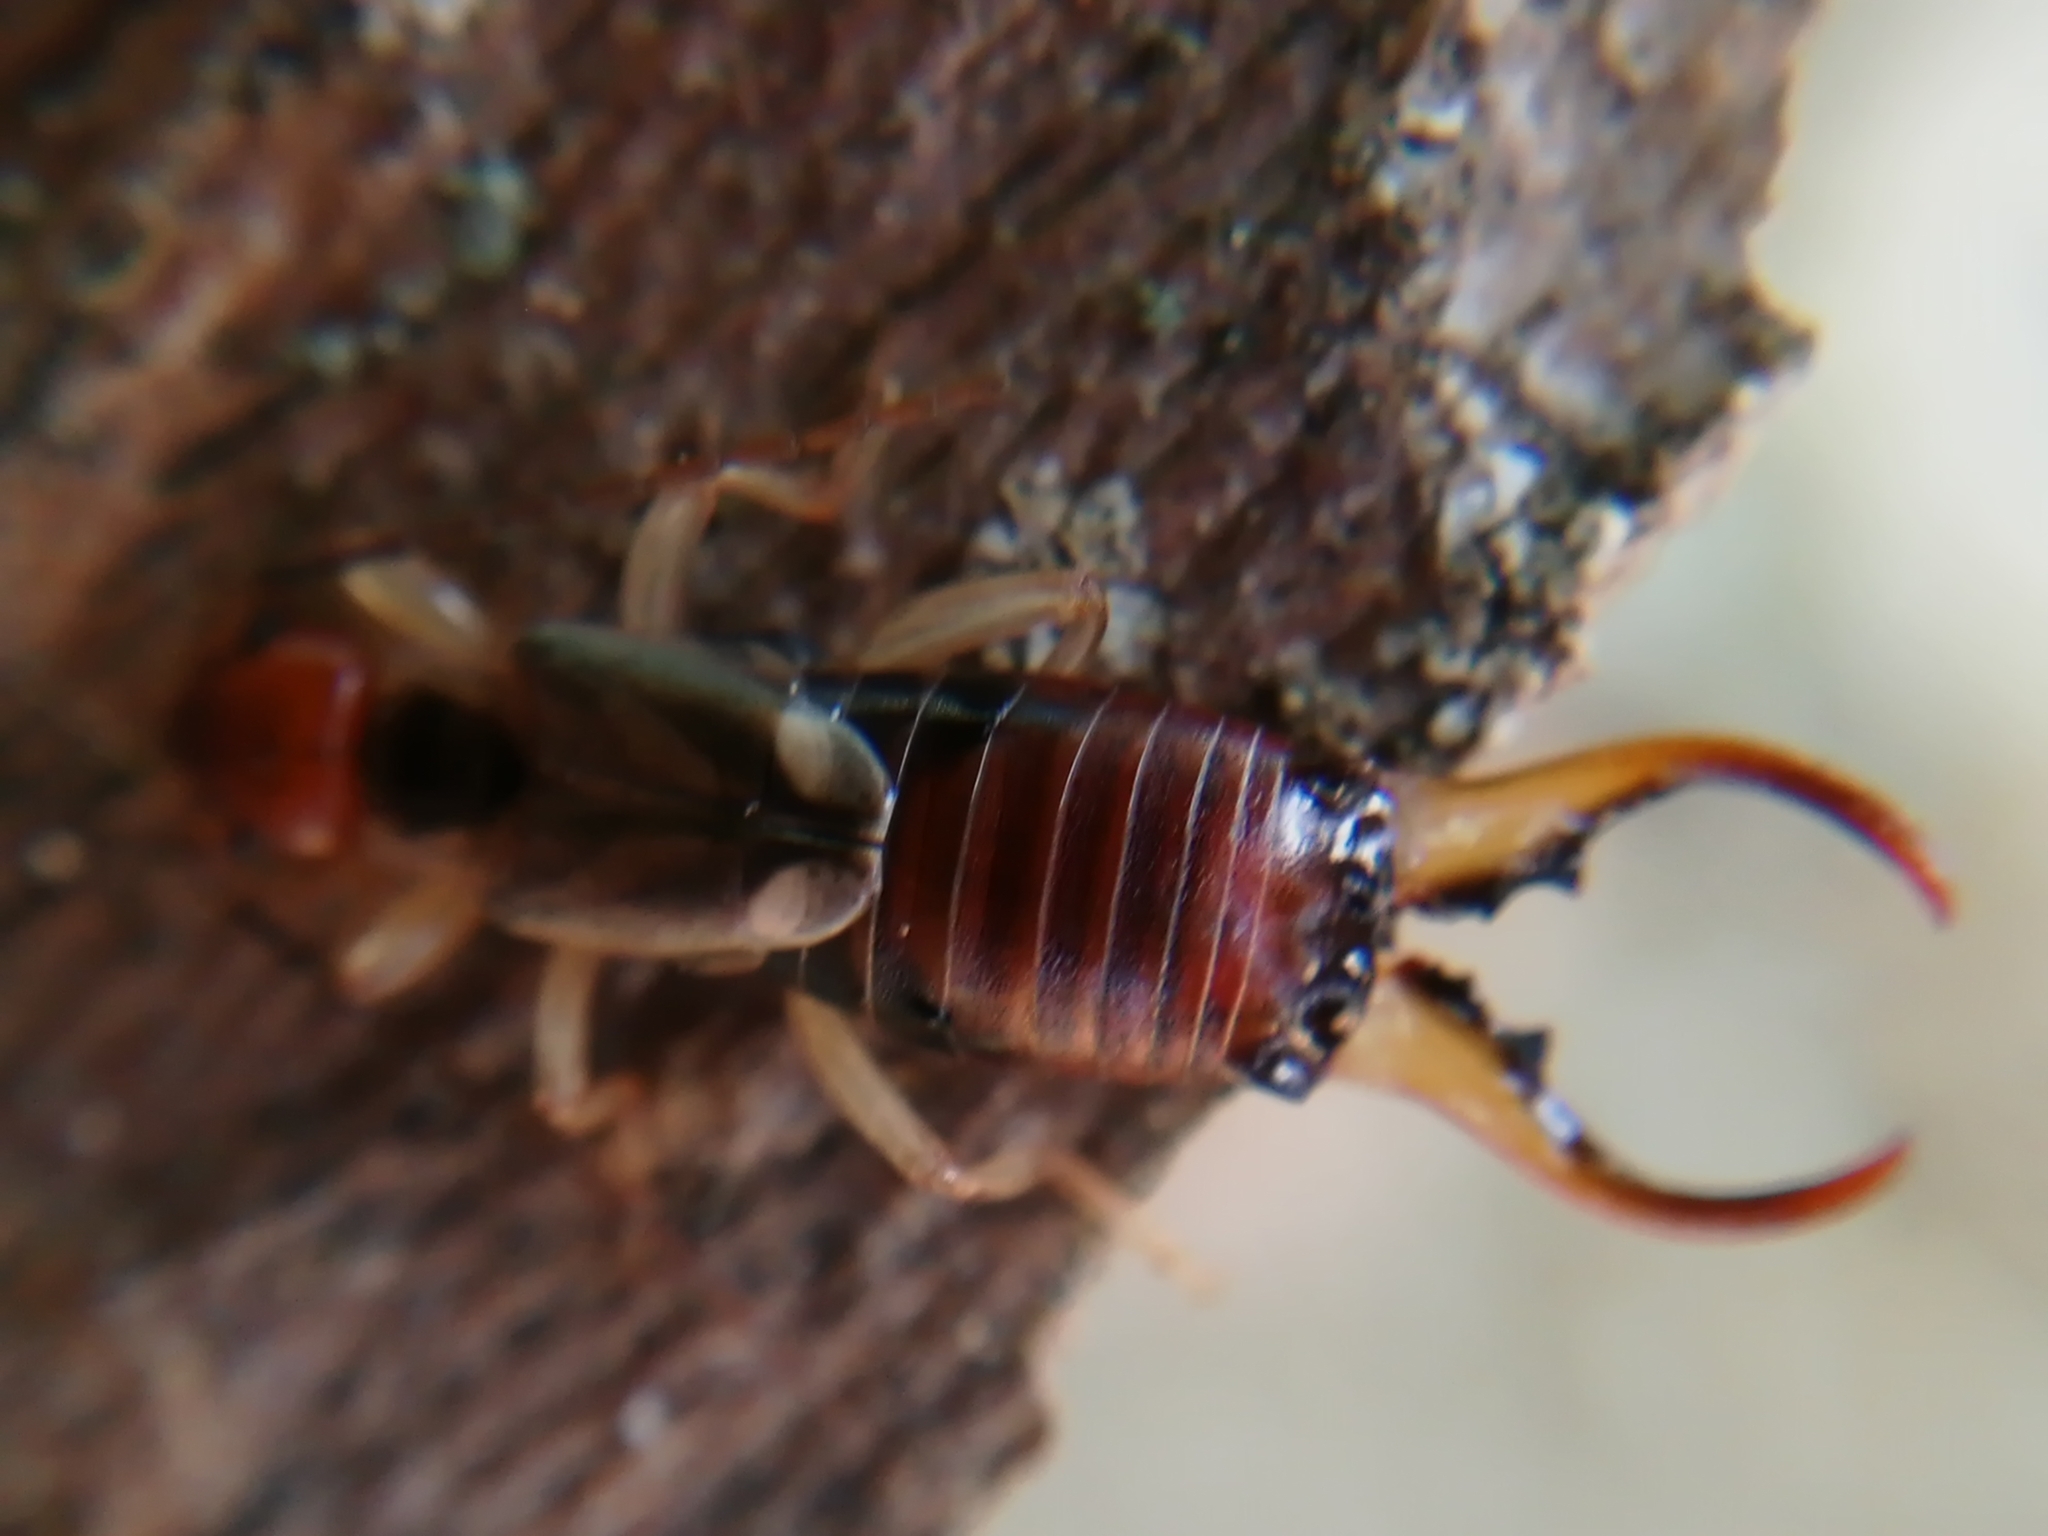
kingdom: Animalia
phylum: Arthropoda
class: Insecta
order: Dermaptera
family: Forficulidae
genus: Forficula
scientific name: Forficula
